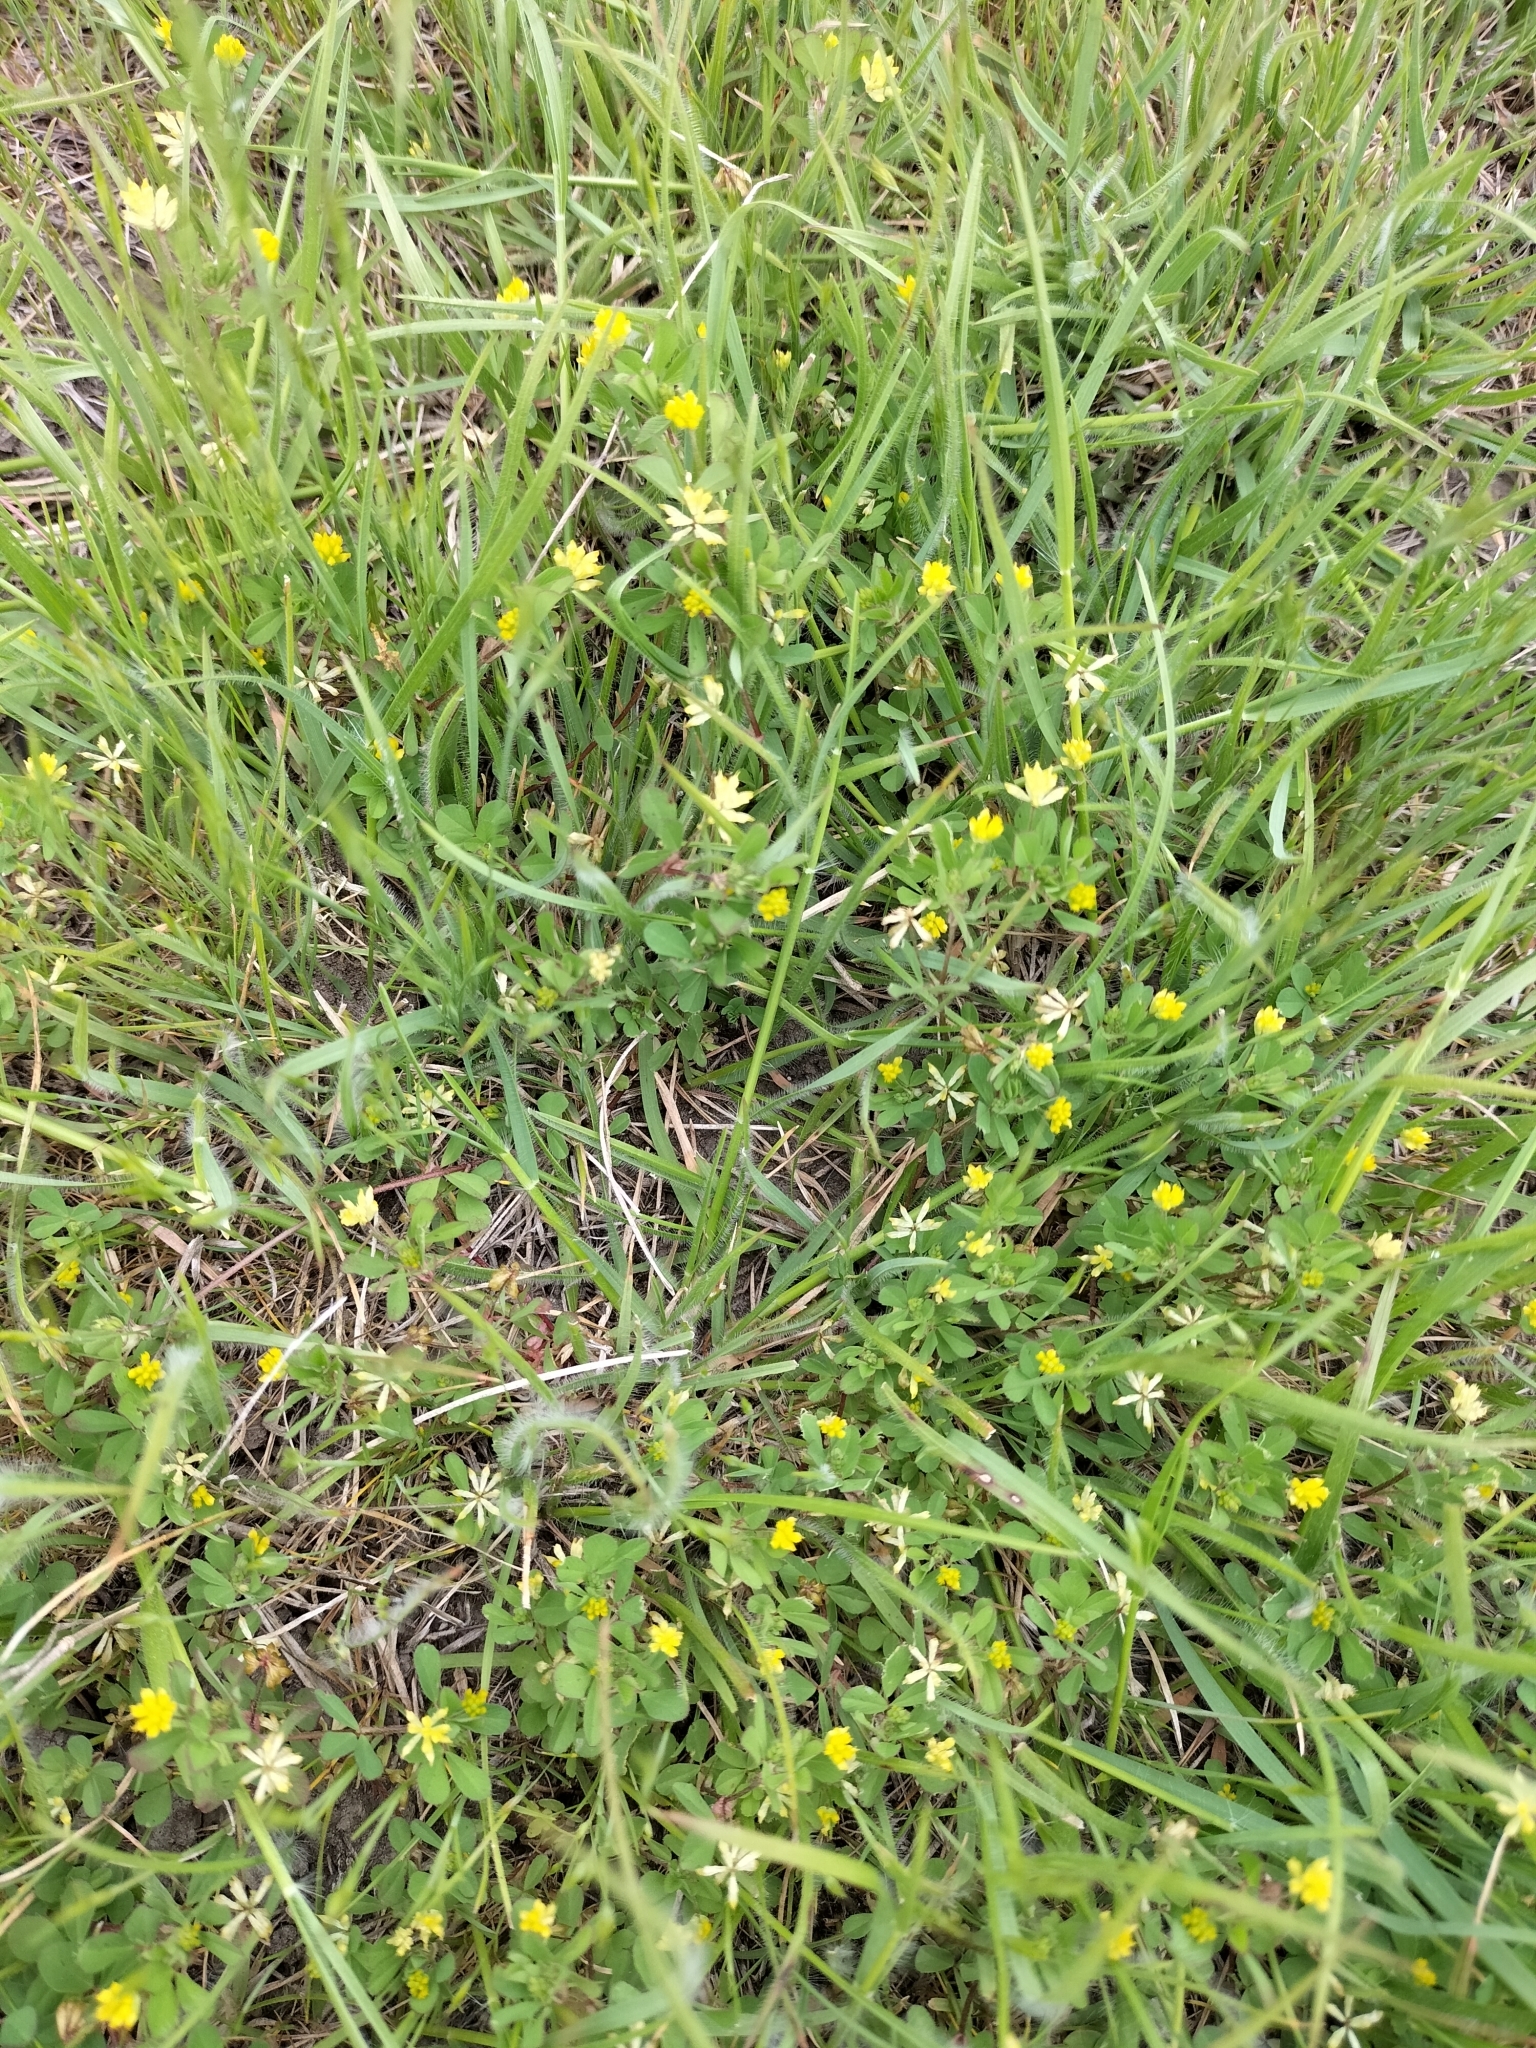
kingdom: Plantae
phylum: Tracheophyta
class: Magnoliopsida
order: Fabales
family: Fabaceae
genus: Trifolium
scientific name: Trifolium dubium
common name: Suckling clover
